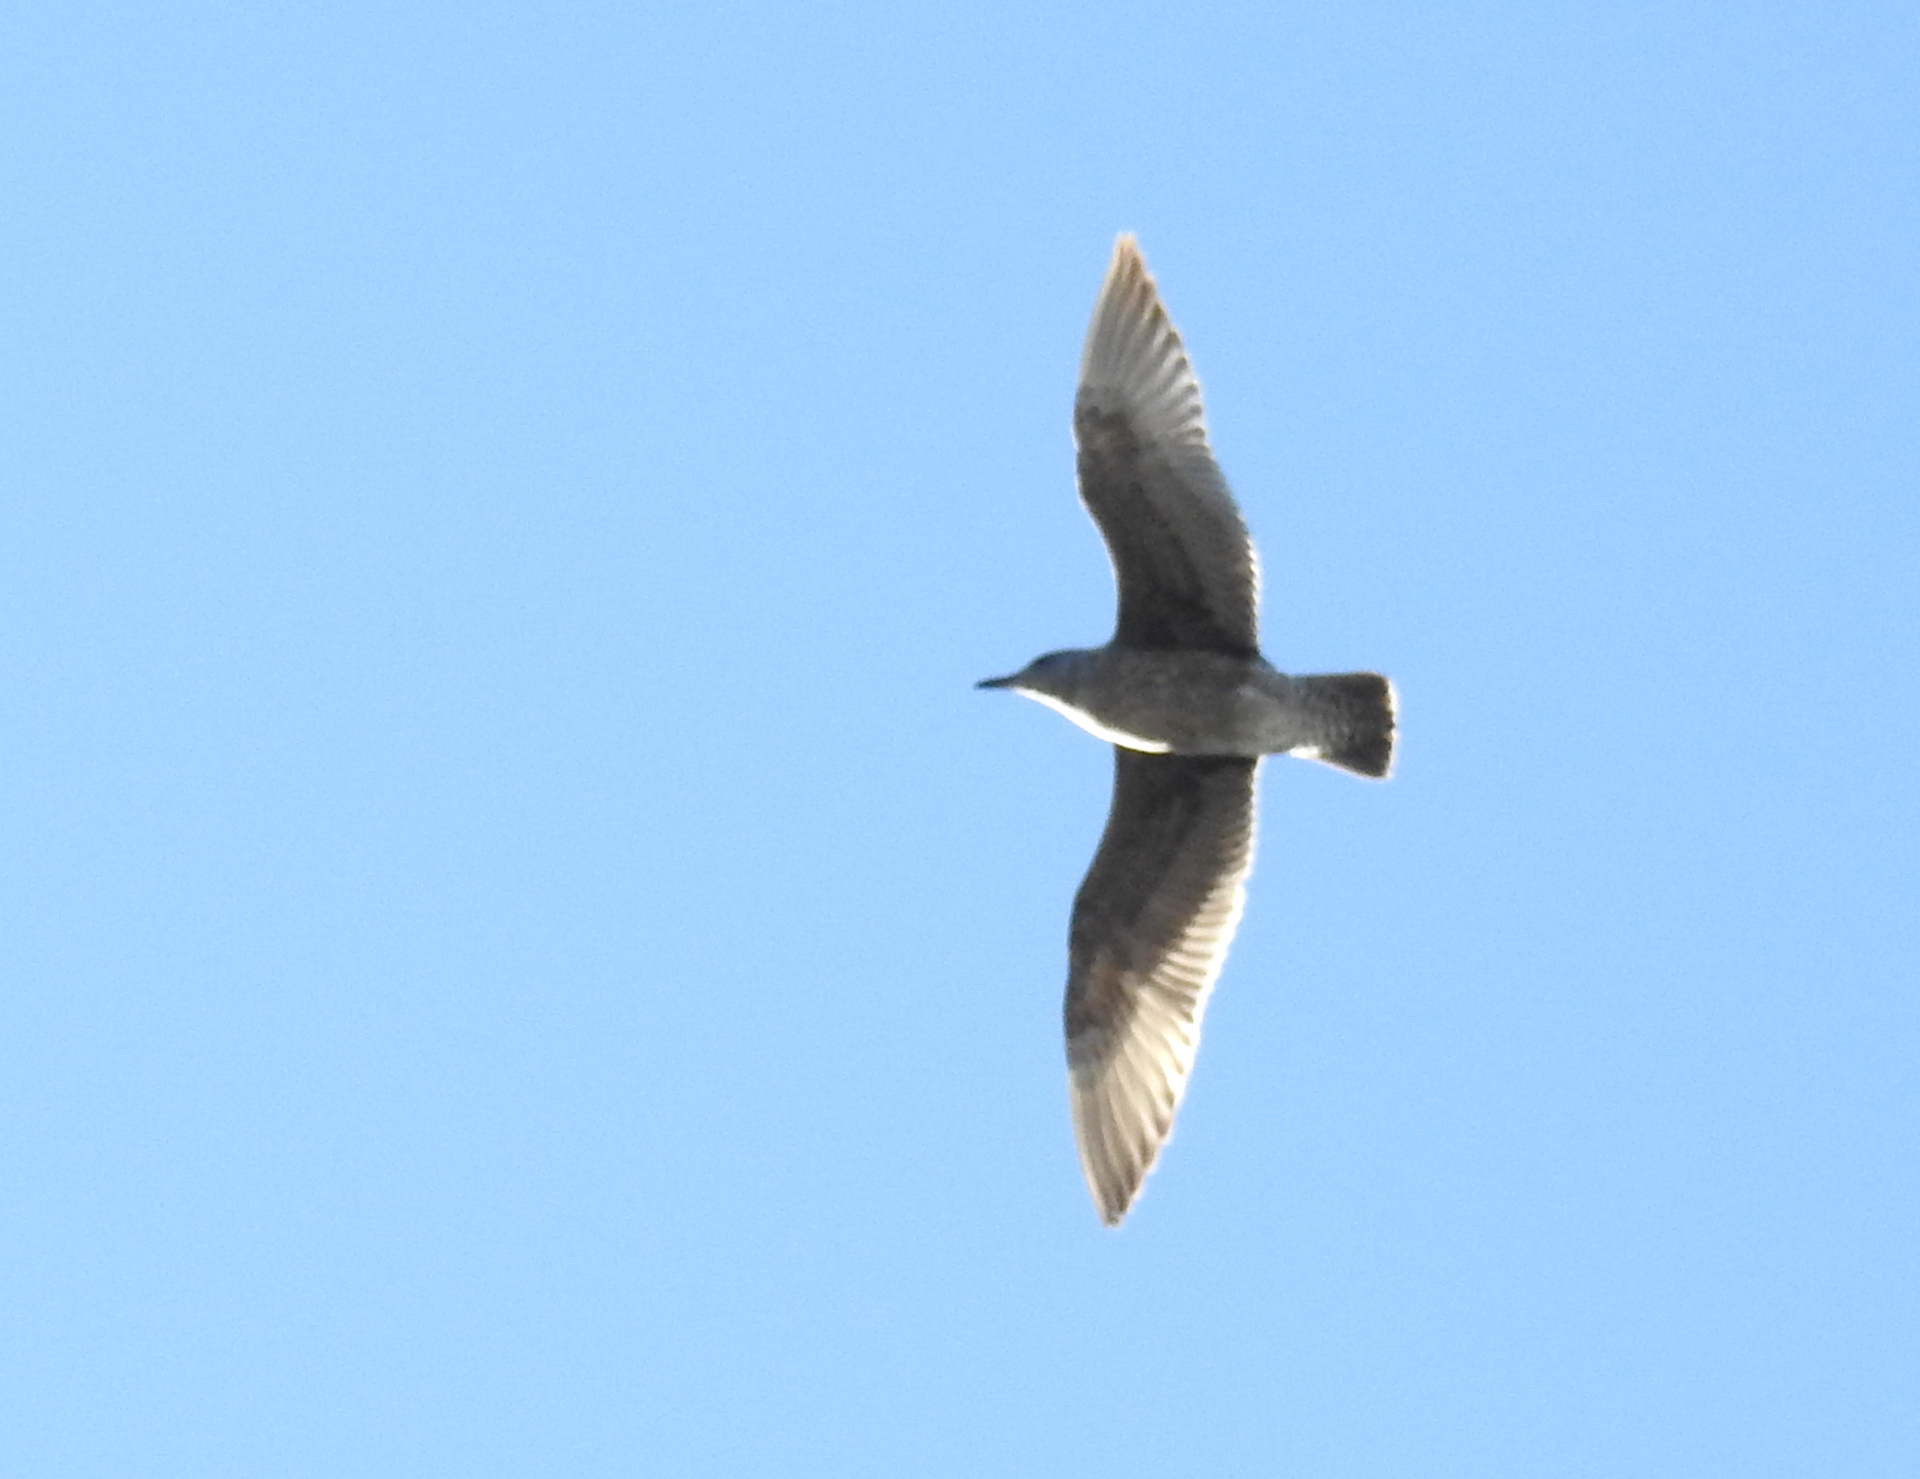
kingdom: Animalia
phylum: Chordata
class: Aves
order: Charadriiformes
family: Laridae
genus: Larus
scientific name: Larus
